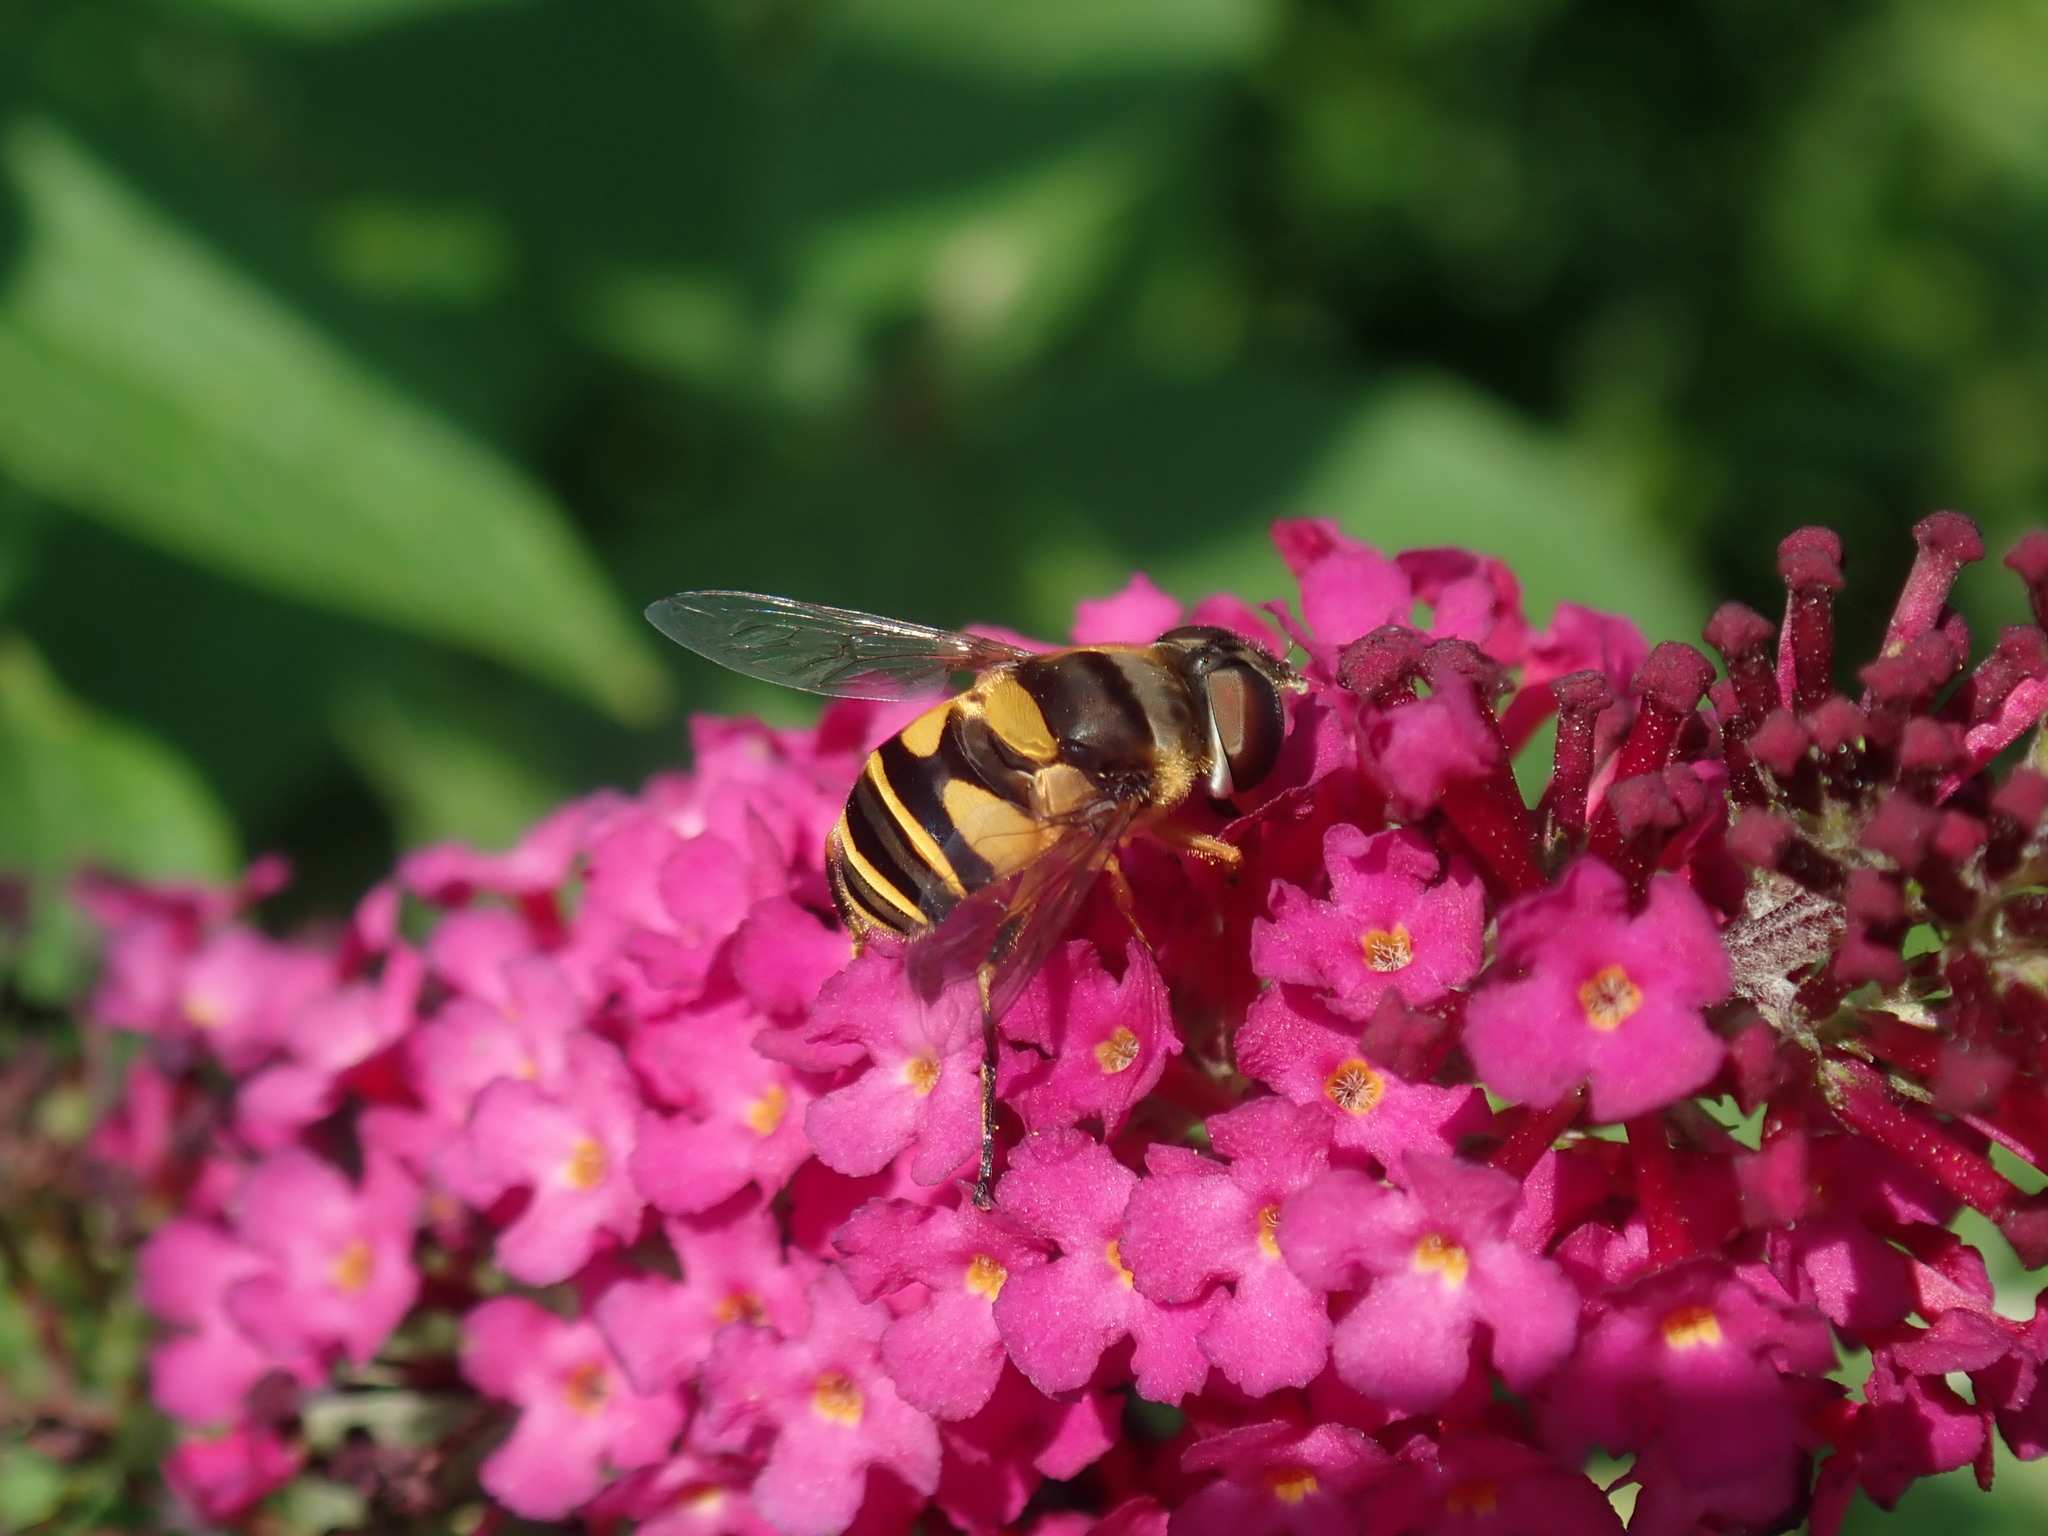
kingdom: Animalia
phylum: Arthropoda
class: Insecta
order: Diptera
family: Syrphidae
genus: Eristalis
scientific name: Eristalis transversa
